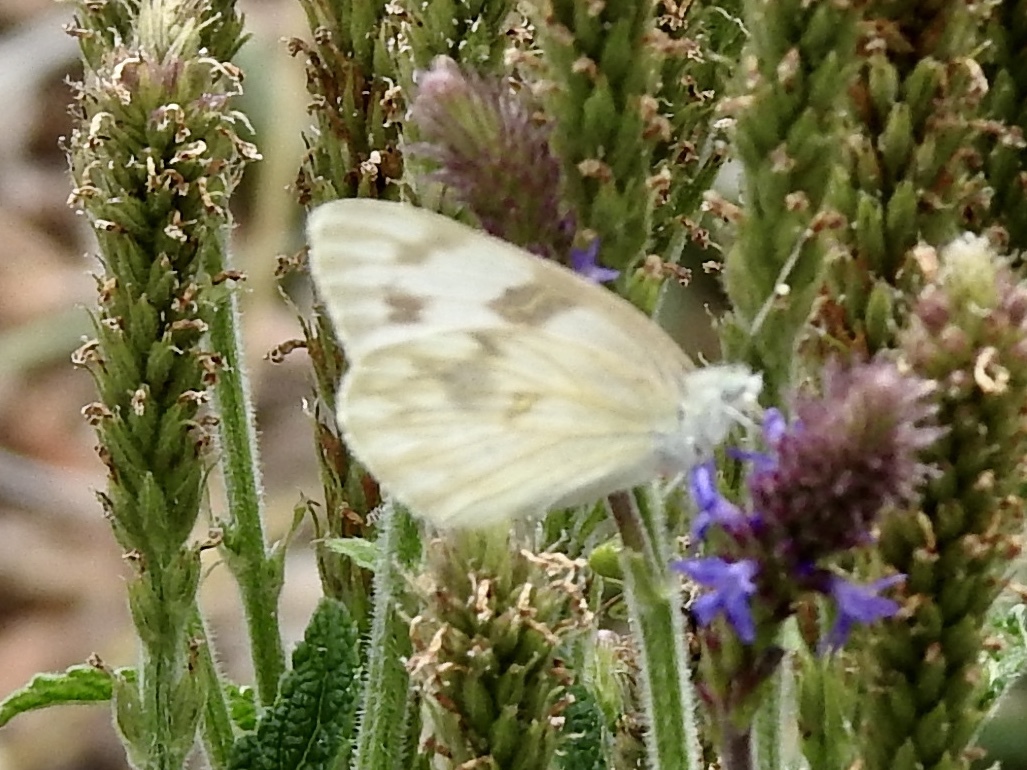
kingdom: Animalia
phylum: Arthropoda
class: Insecta
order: Lepidoptera
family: Pieridae
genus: Pontia
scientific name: Pontia protodice
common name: Checkered white
